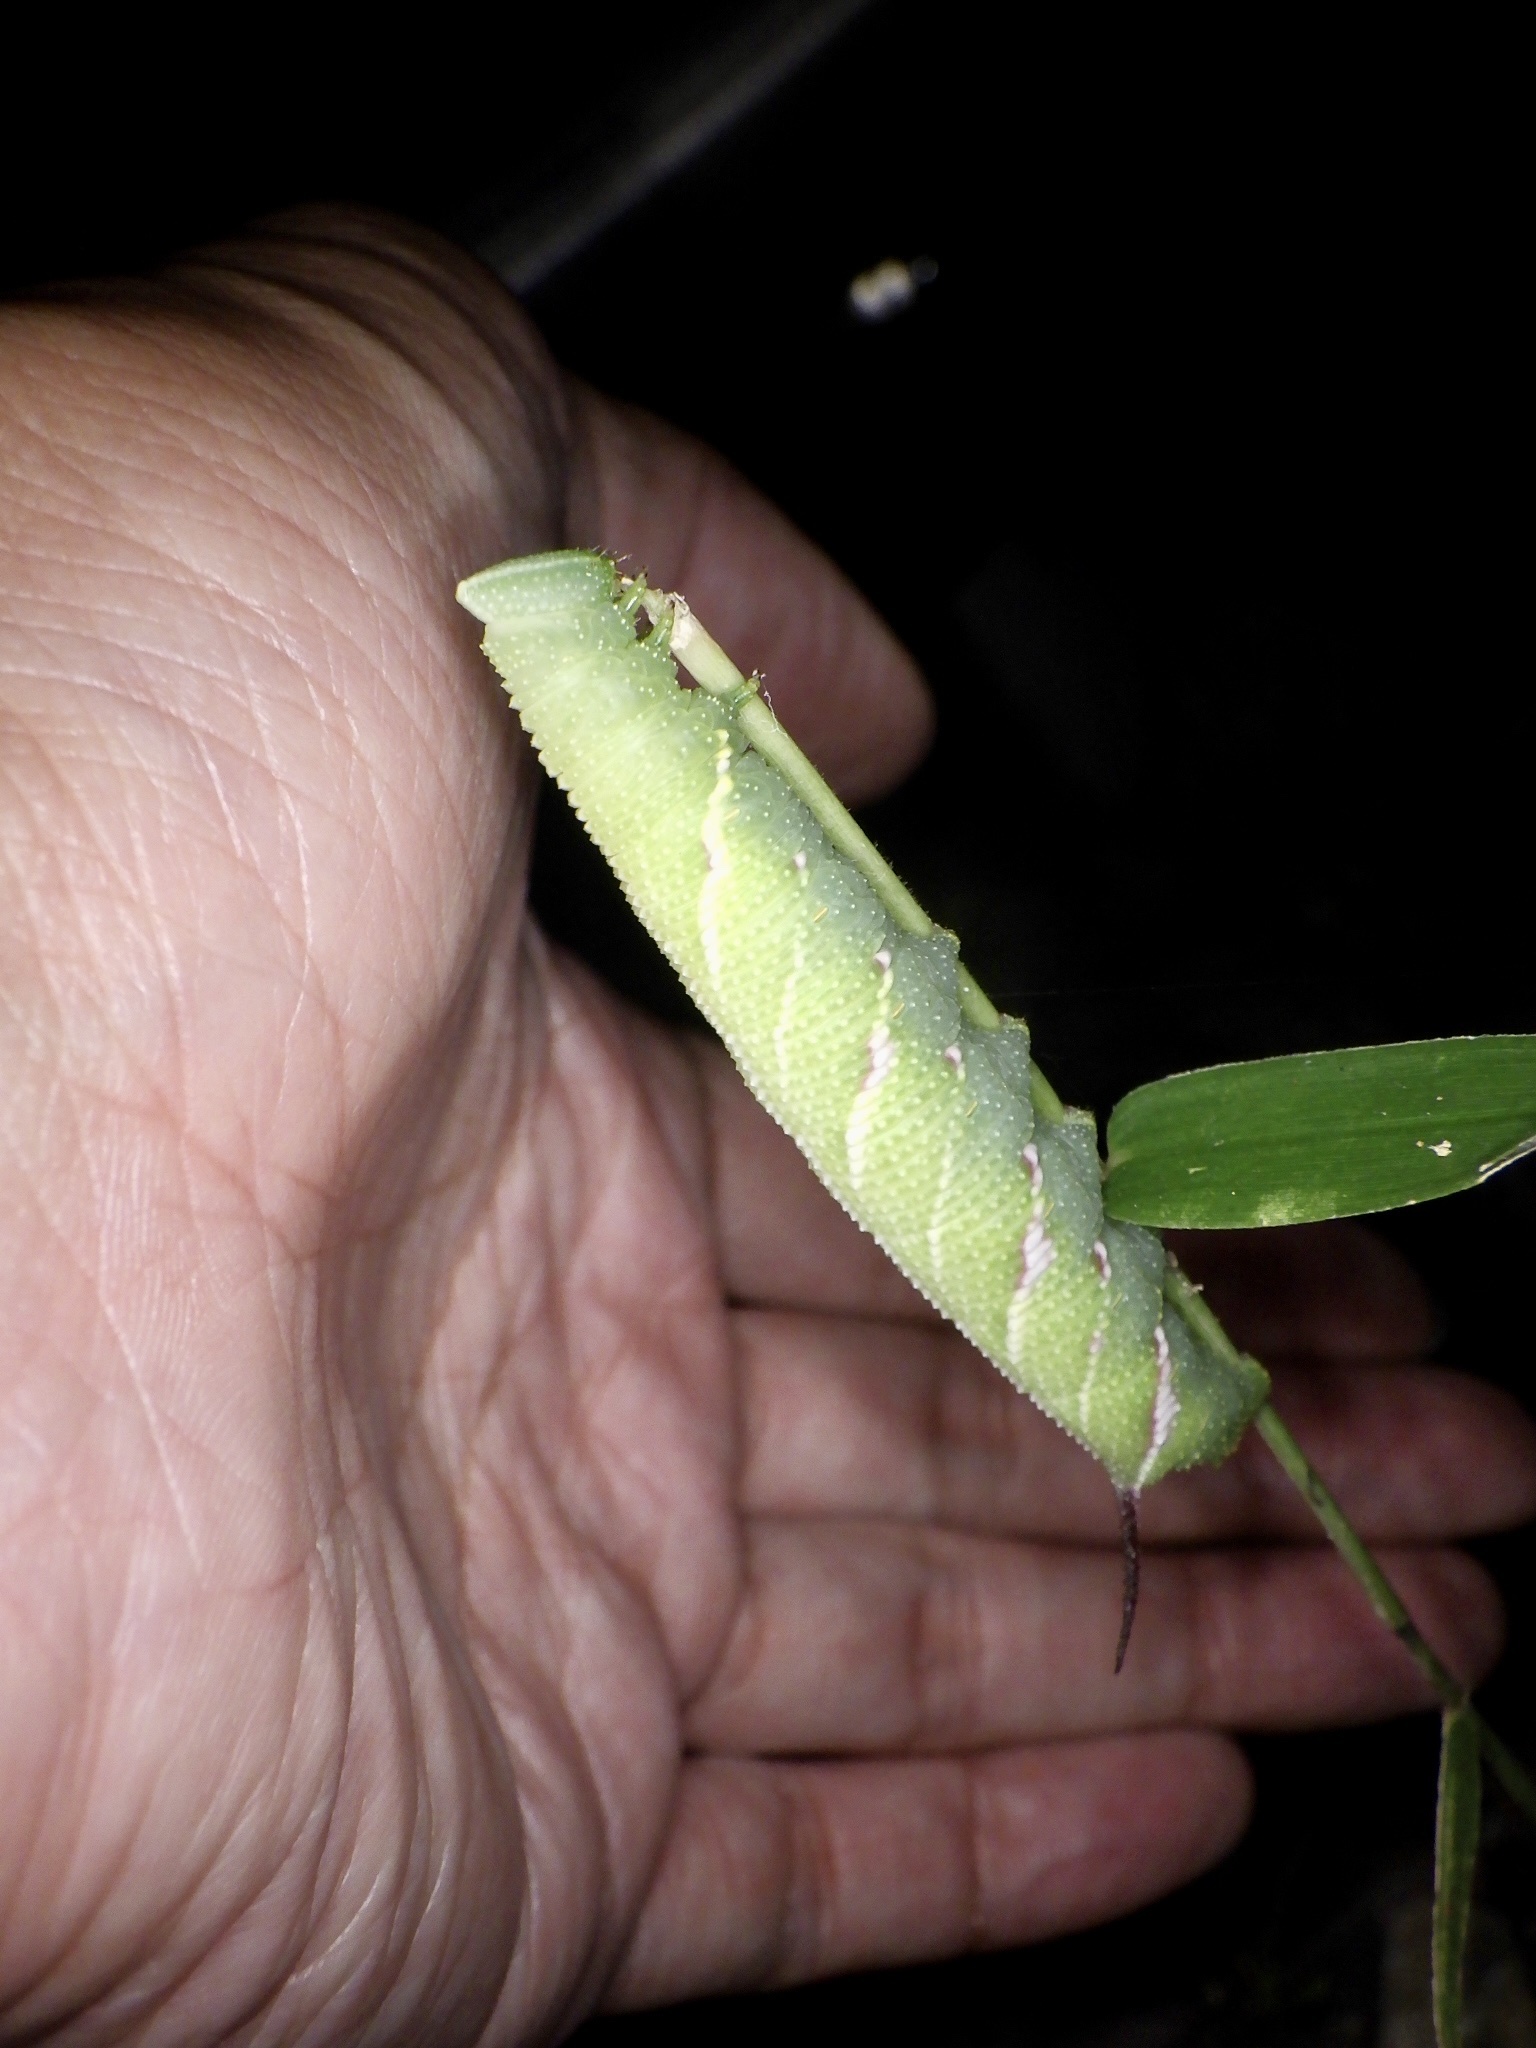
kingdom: Animalia
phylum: Arthropoda
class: Insecta
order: Lepidoptera
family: Sphingidae
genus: Callambulyx
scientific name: Callambulyx tatarinovii
